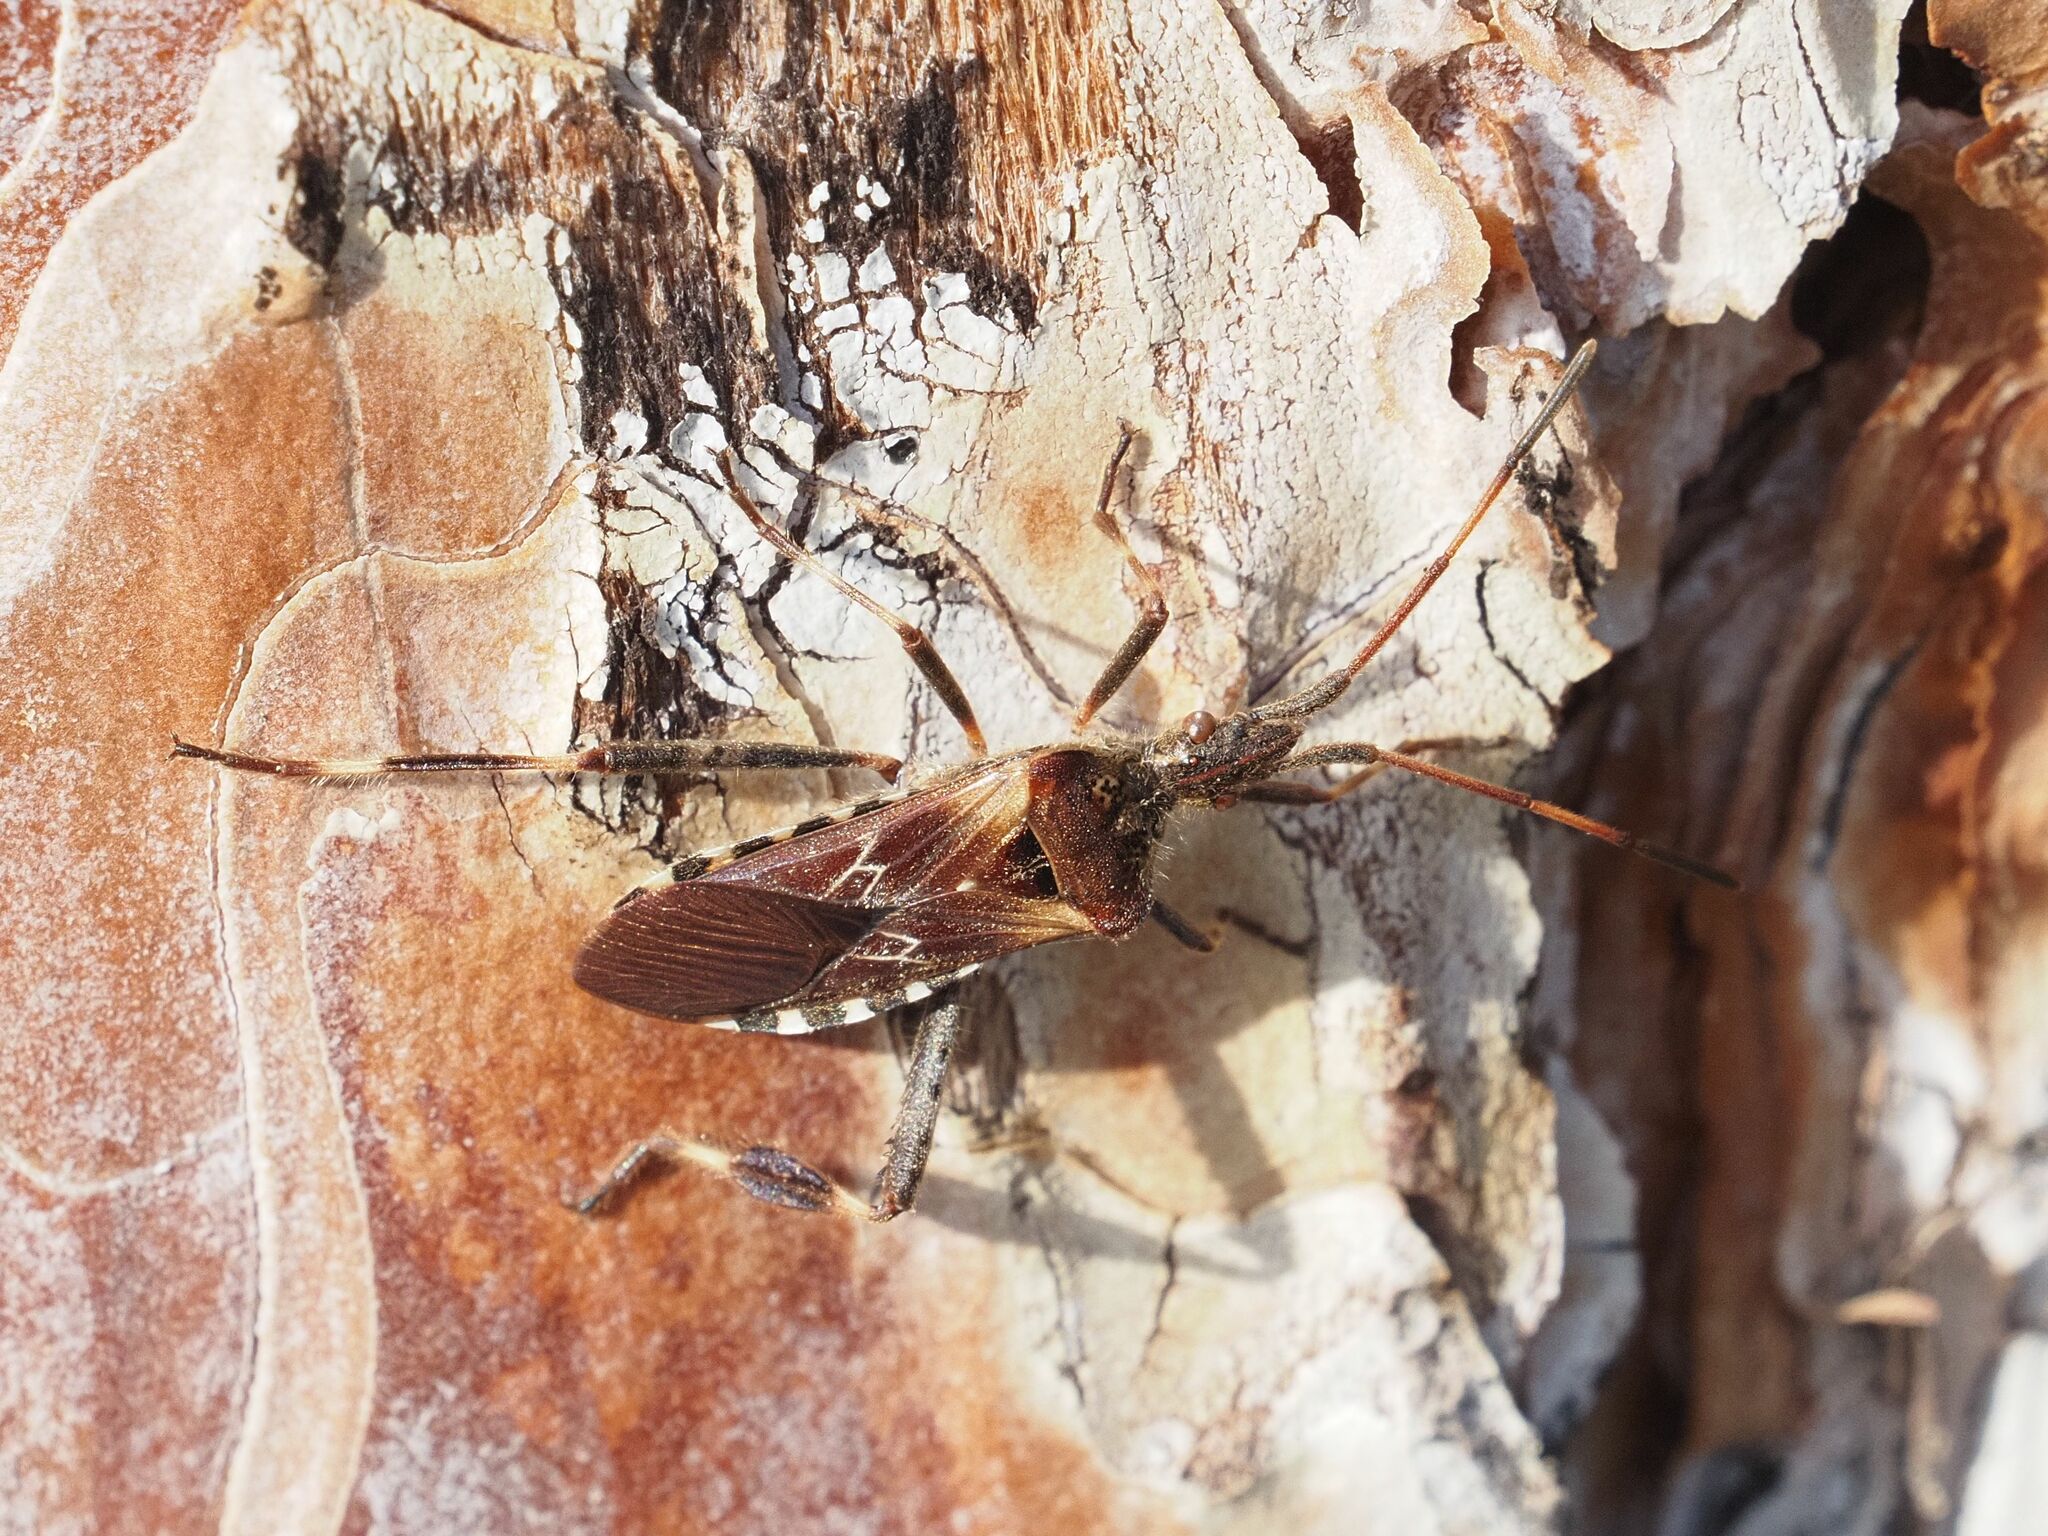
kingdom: Animalia
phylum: Arthropoda
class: Insecta
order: Hemiptera
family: Coreidae
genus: Leptoglossus
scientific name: Leptoglossus occidentalis
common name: Western conifer-seed bug
